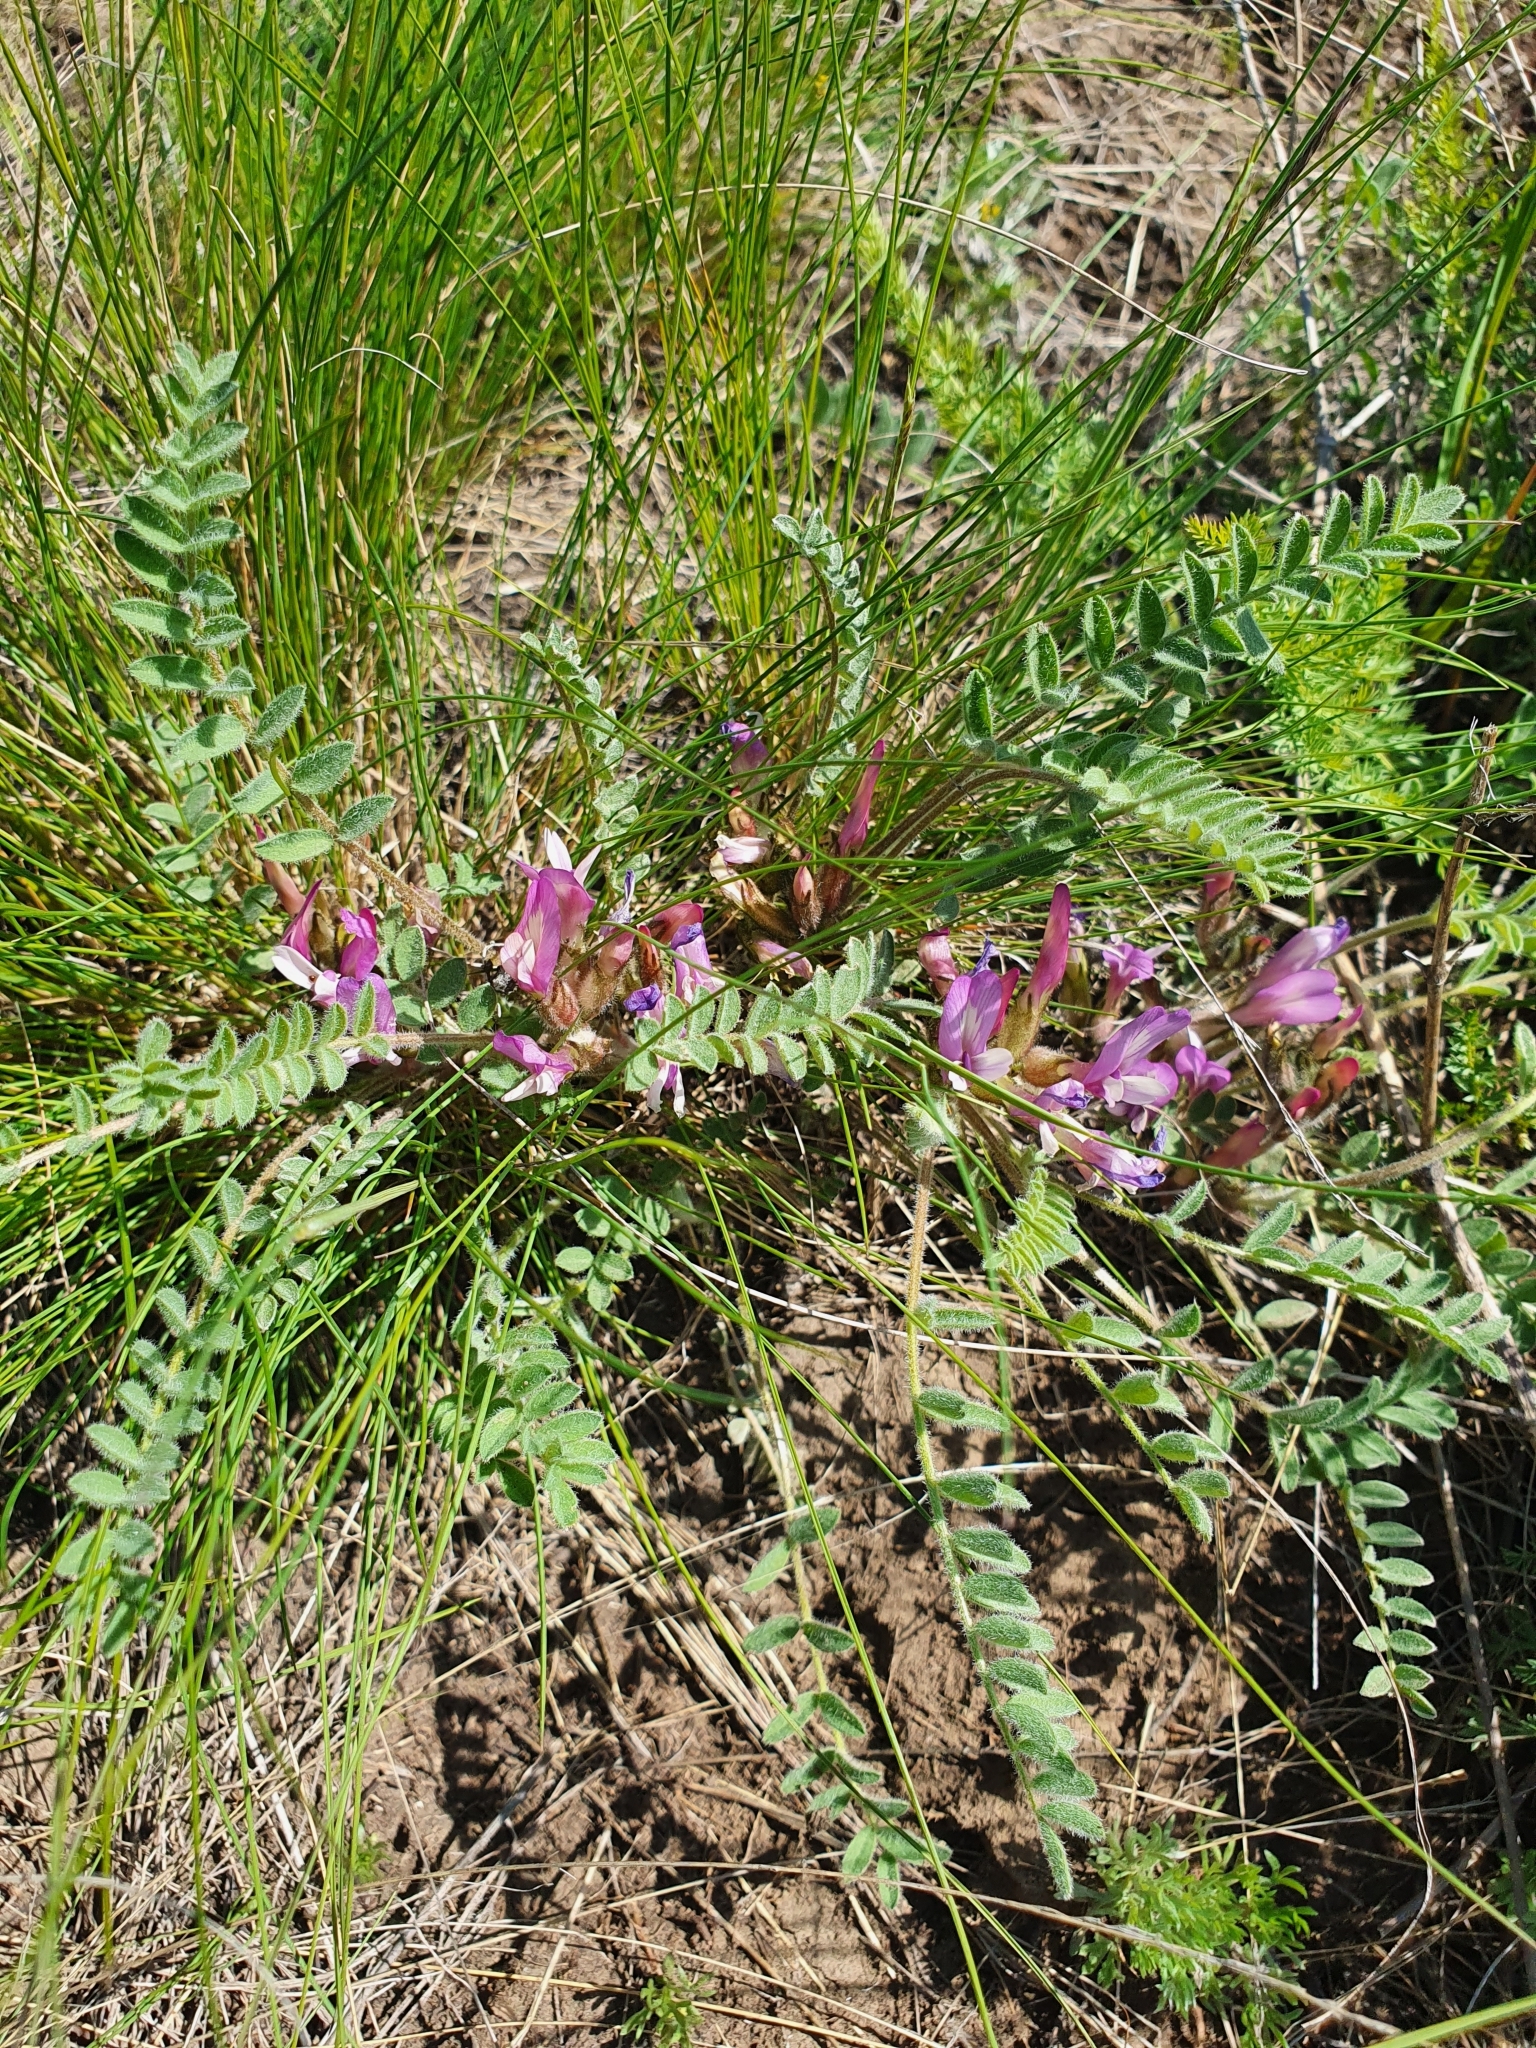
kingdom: Plantae
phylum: Tracheophyta
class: Magnoliopsida
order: Fabales
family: Fabaceae
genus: Astragalus
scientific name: Astragalus testiculatus
